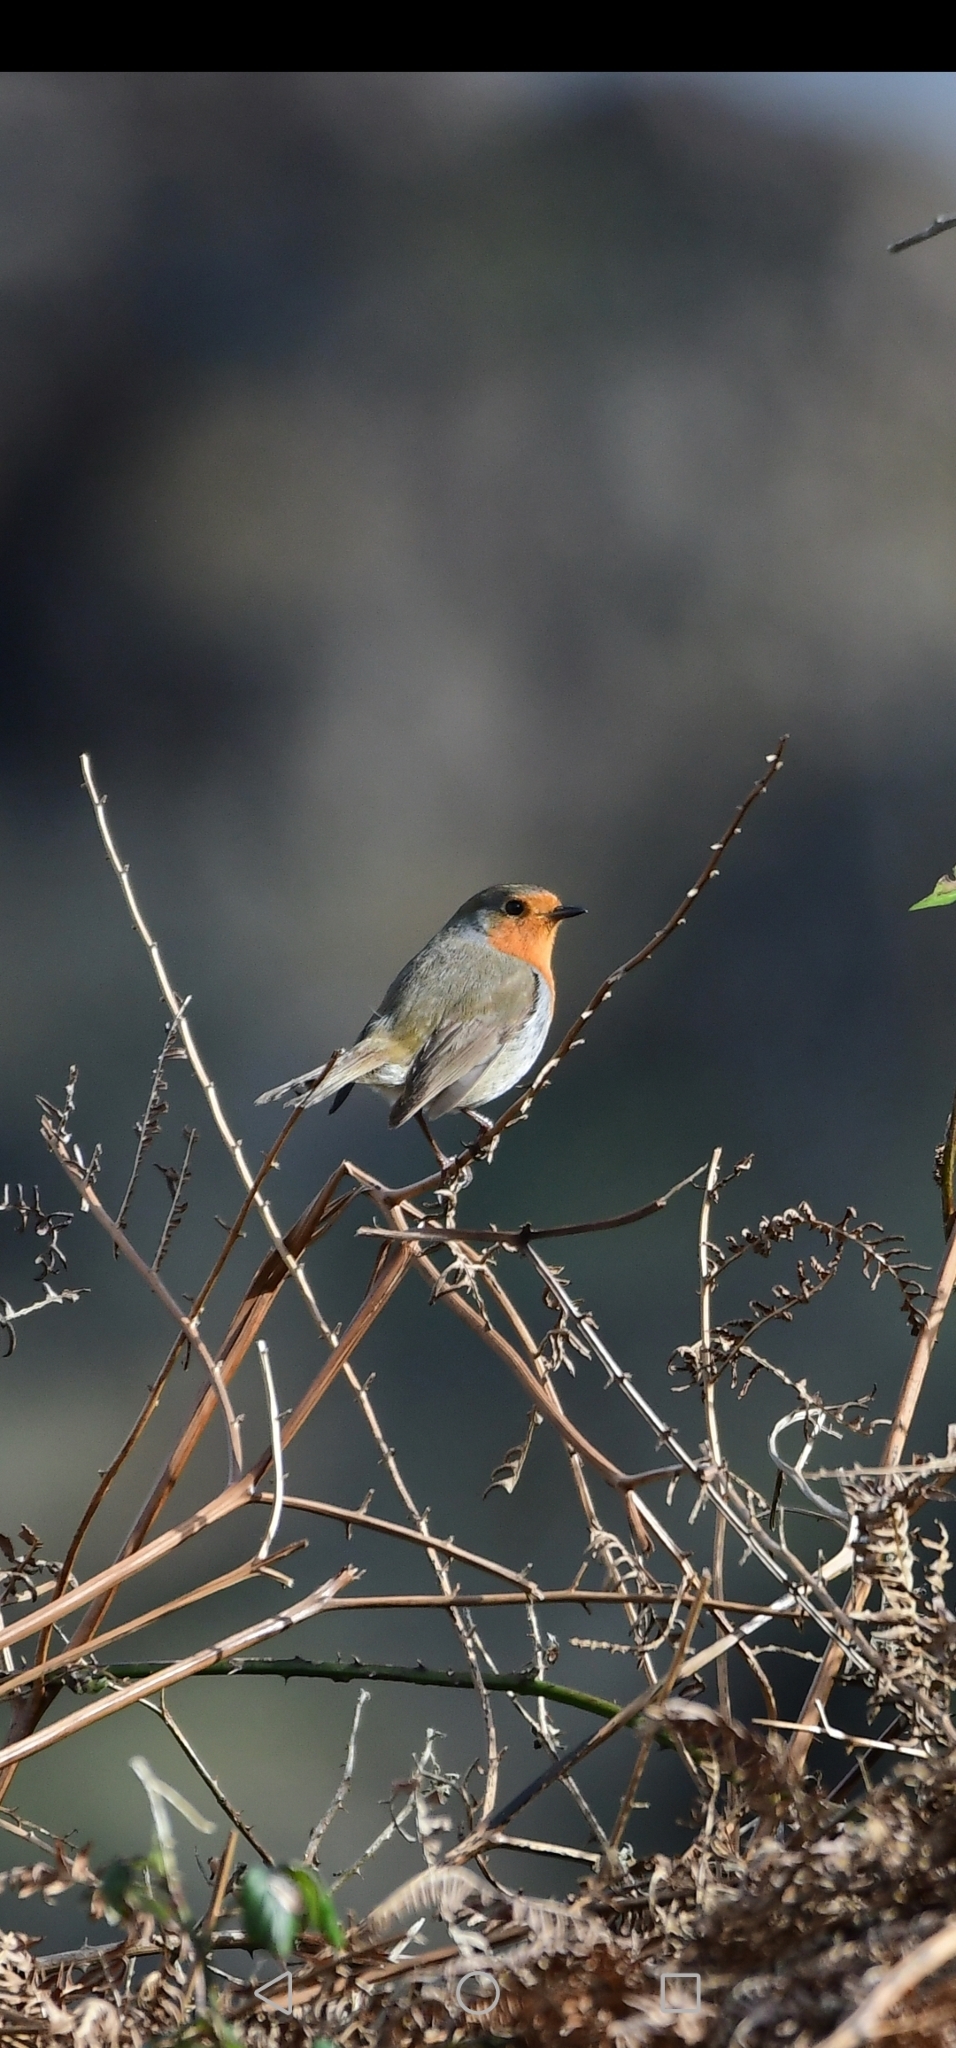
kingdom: Animalia
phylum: Chordata
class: Aves
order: Passeriformes
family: Muscicapidae
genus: Erithacus
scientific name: Erithacus rubecula
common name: European robin
